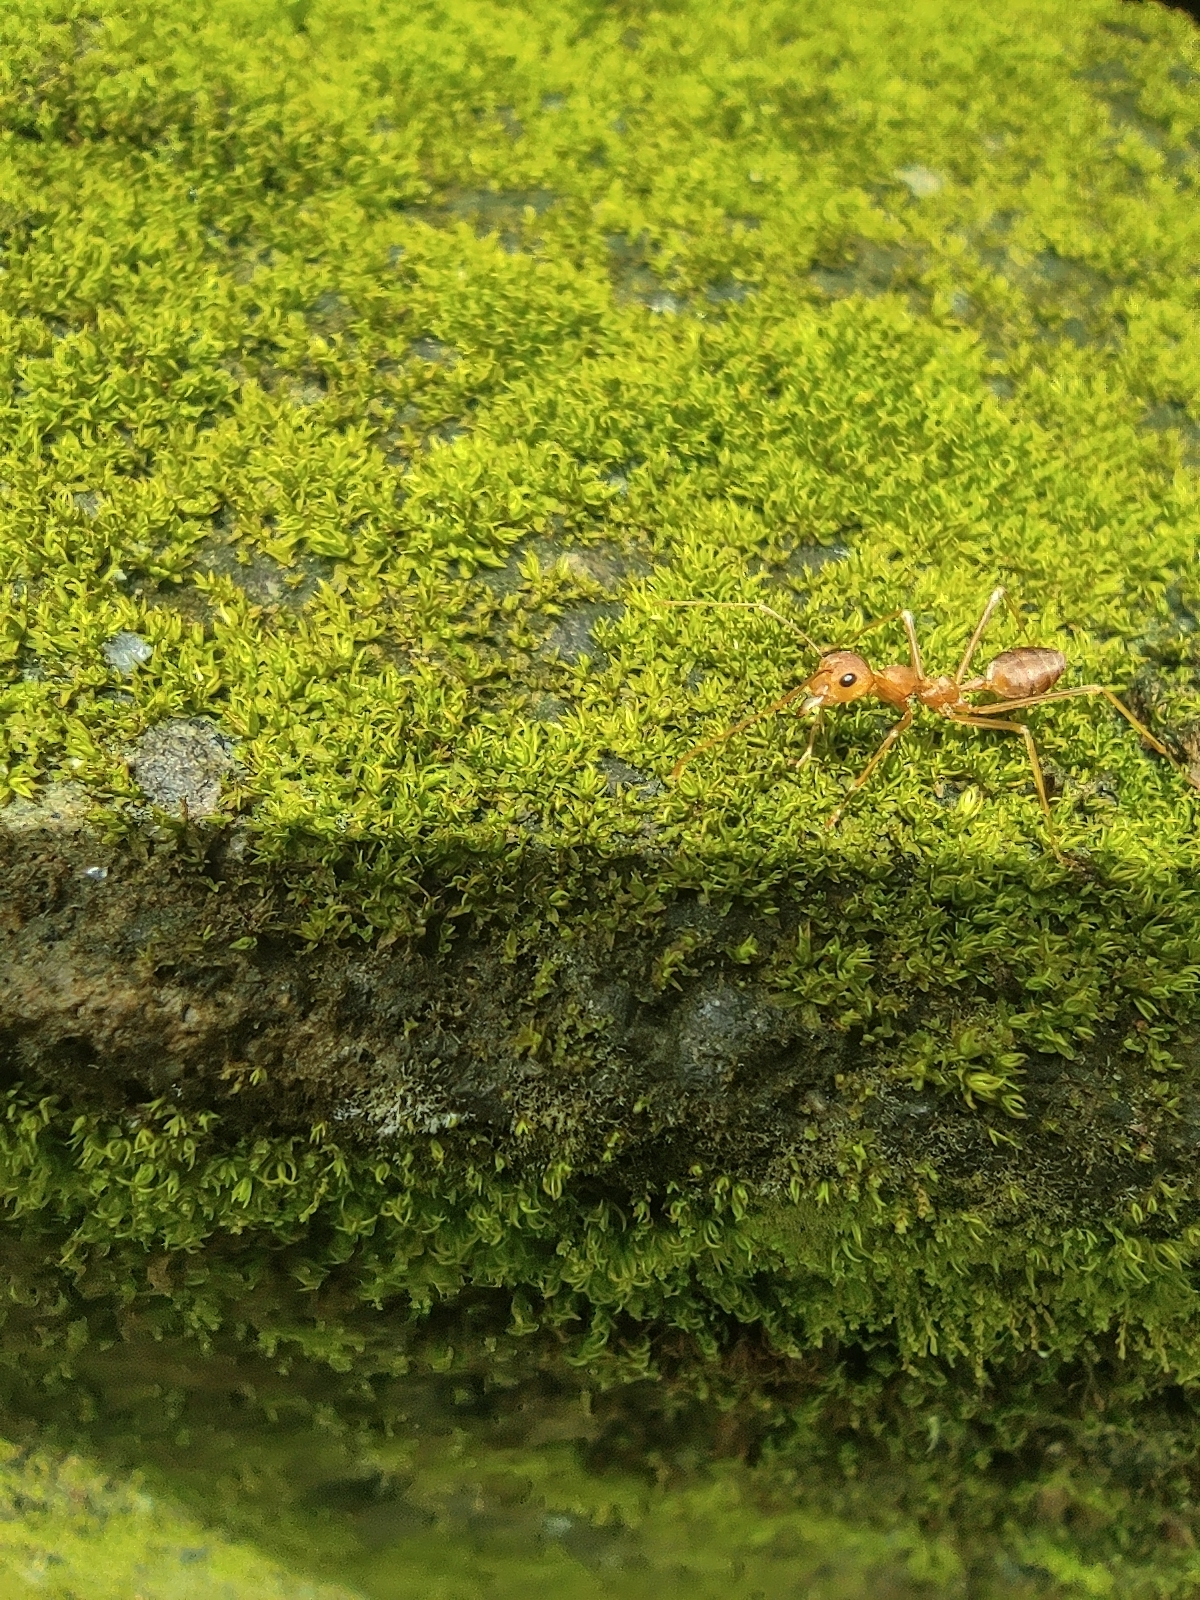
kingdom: Animalia
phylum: Arthropoda
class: Insecta
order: Hymenoptera
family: Formicidae
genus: Oecophylla
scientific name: Oecophylla smaragdina
